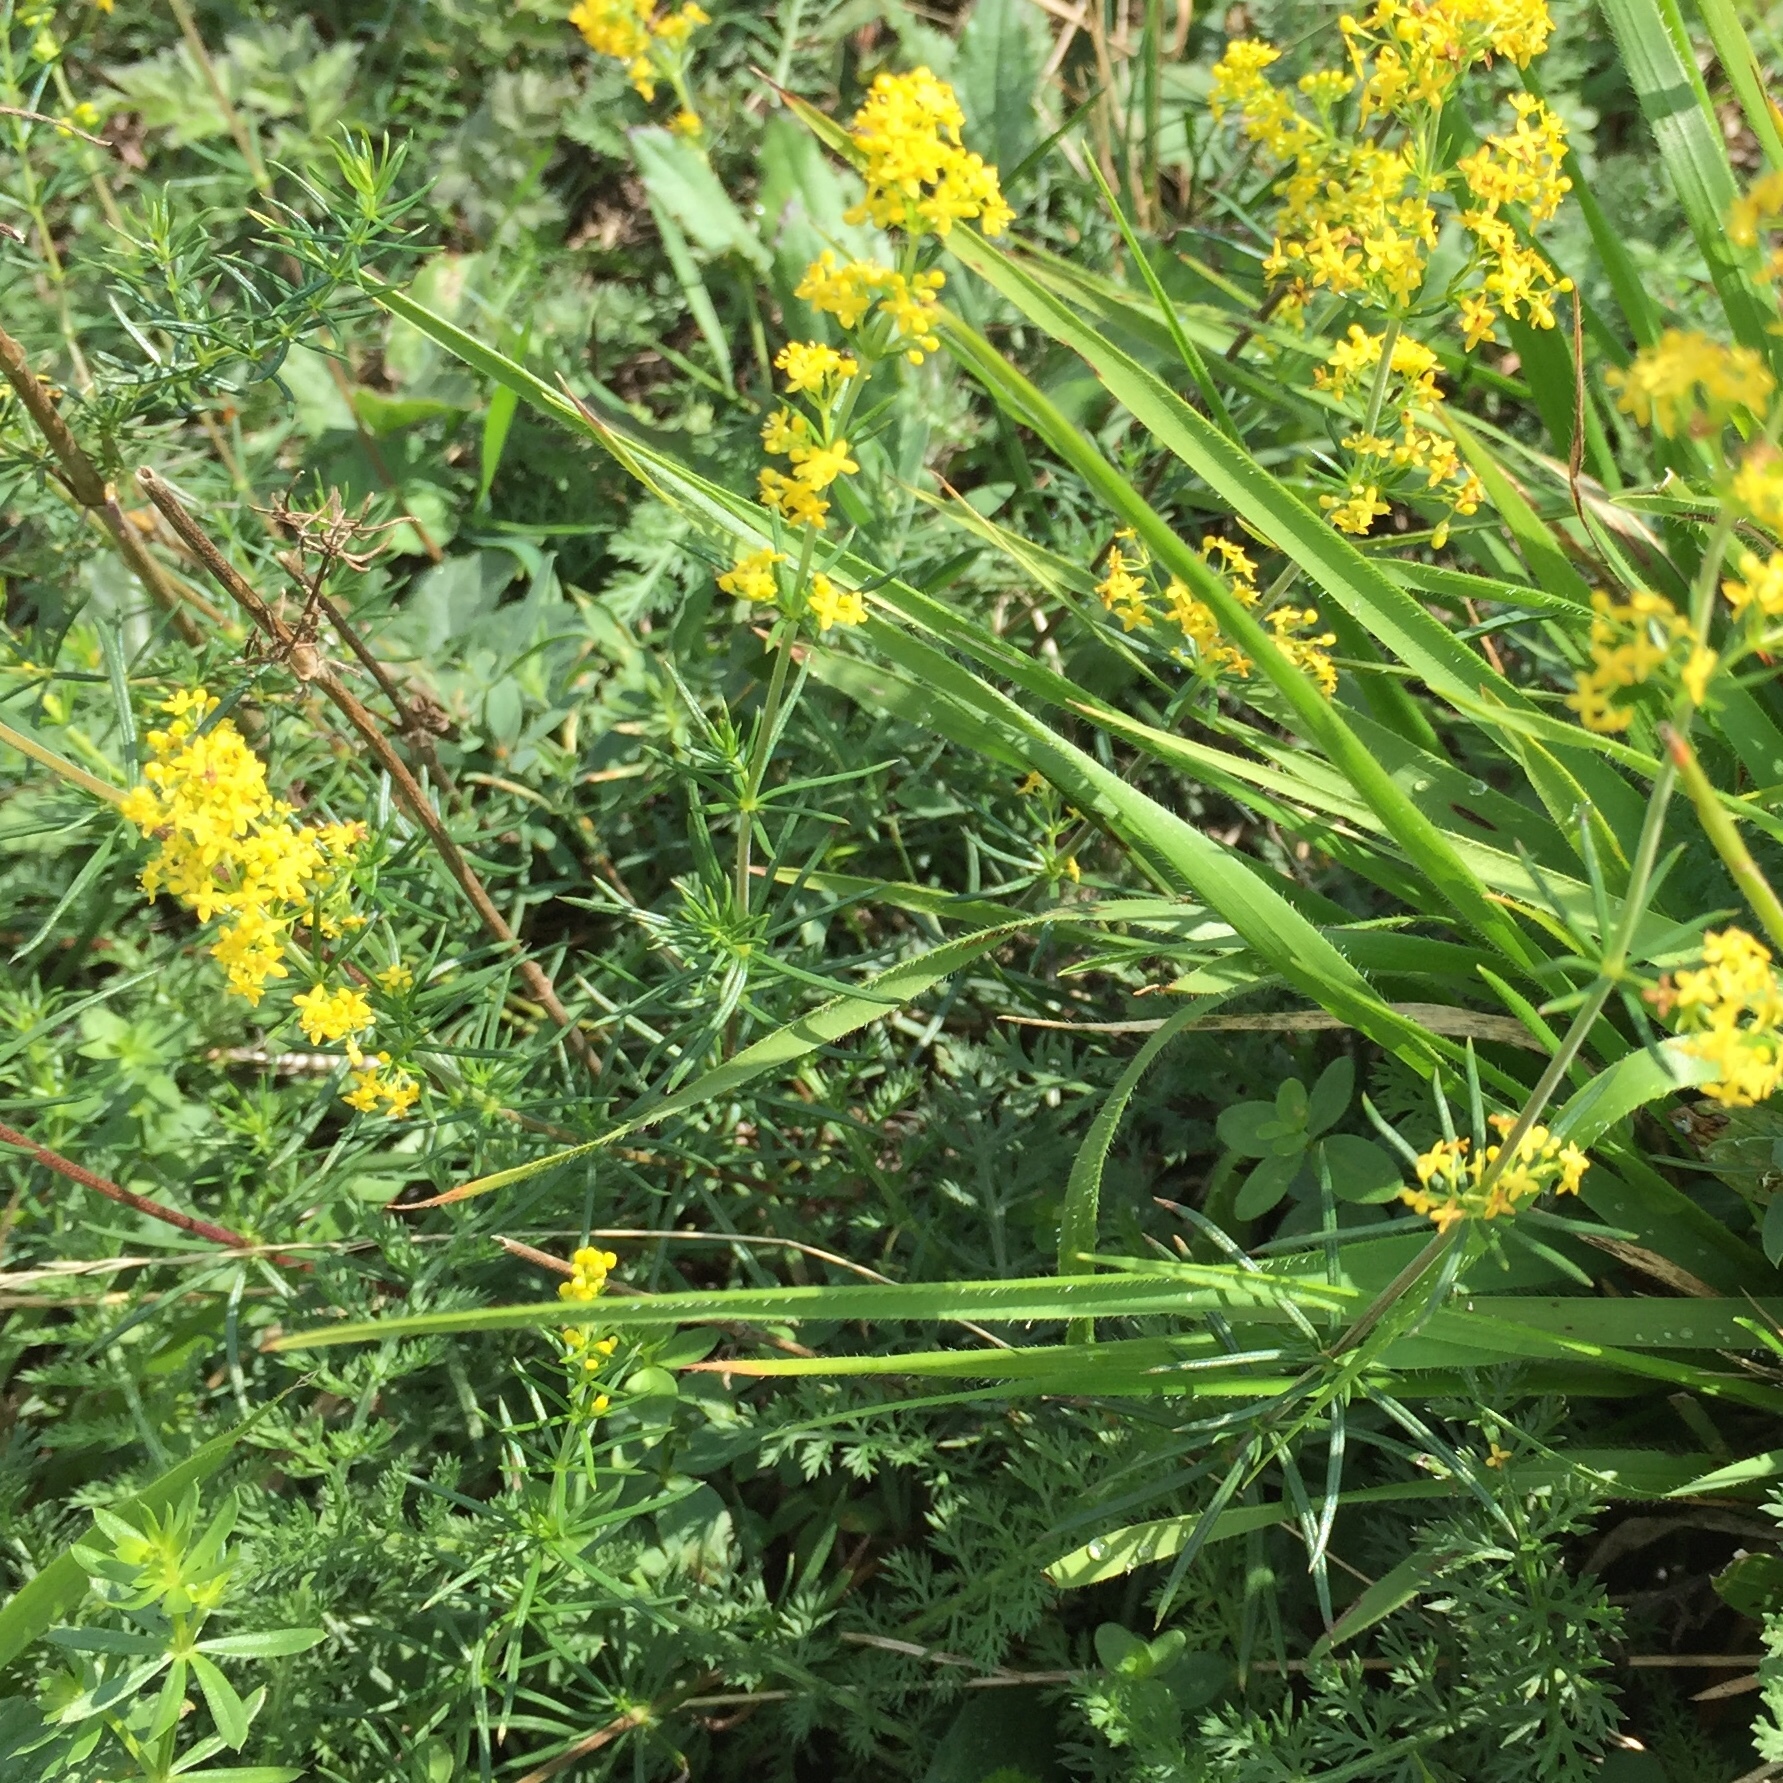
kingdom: Plantae
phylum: Tracheophyta
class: Magnoliopsida
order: Gentianales
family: Rubiaceae
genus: Galium
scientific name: Galium verum
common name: Lady's bedstraw
